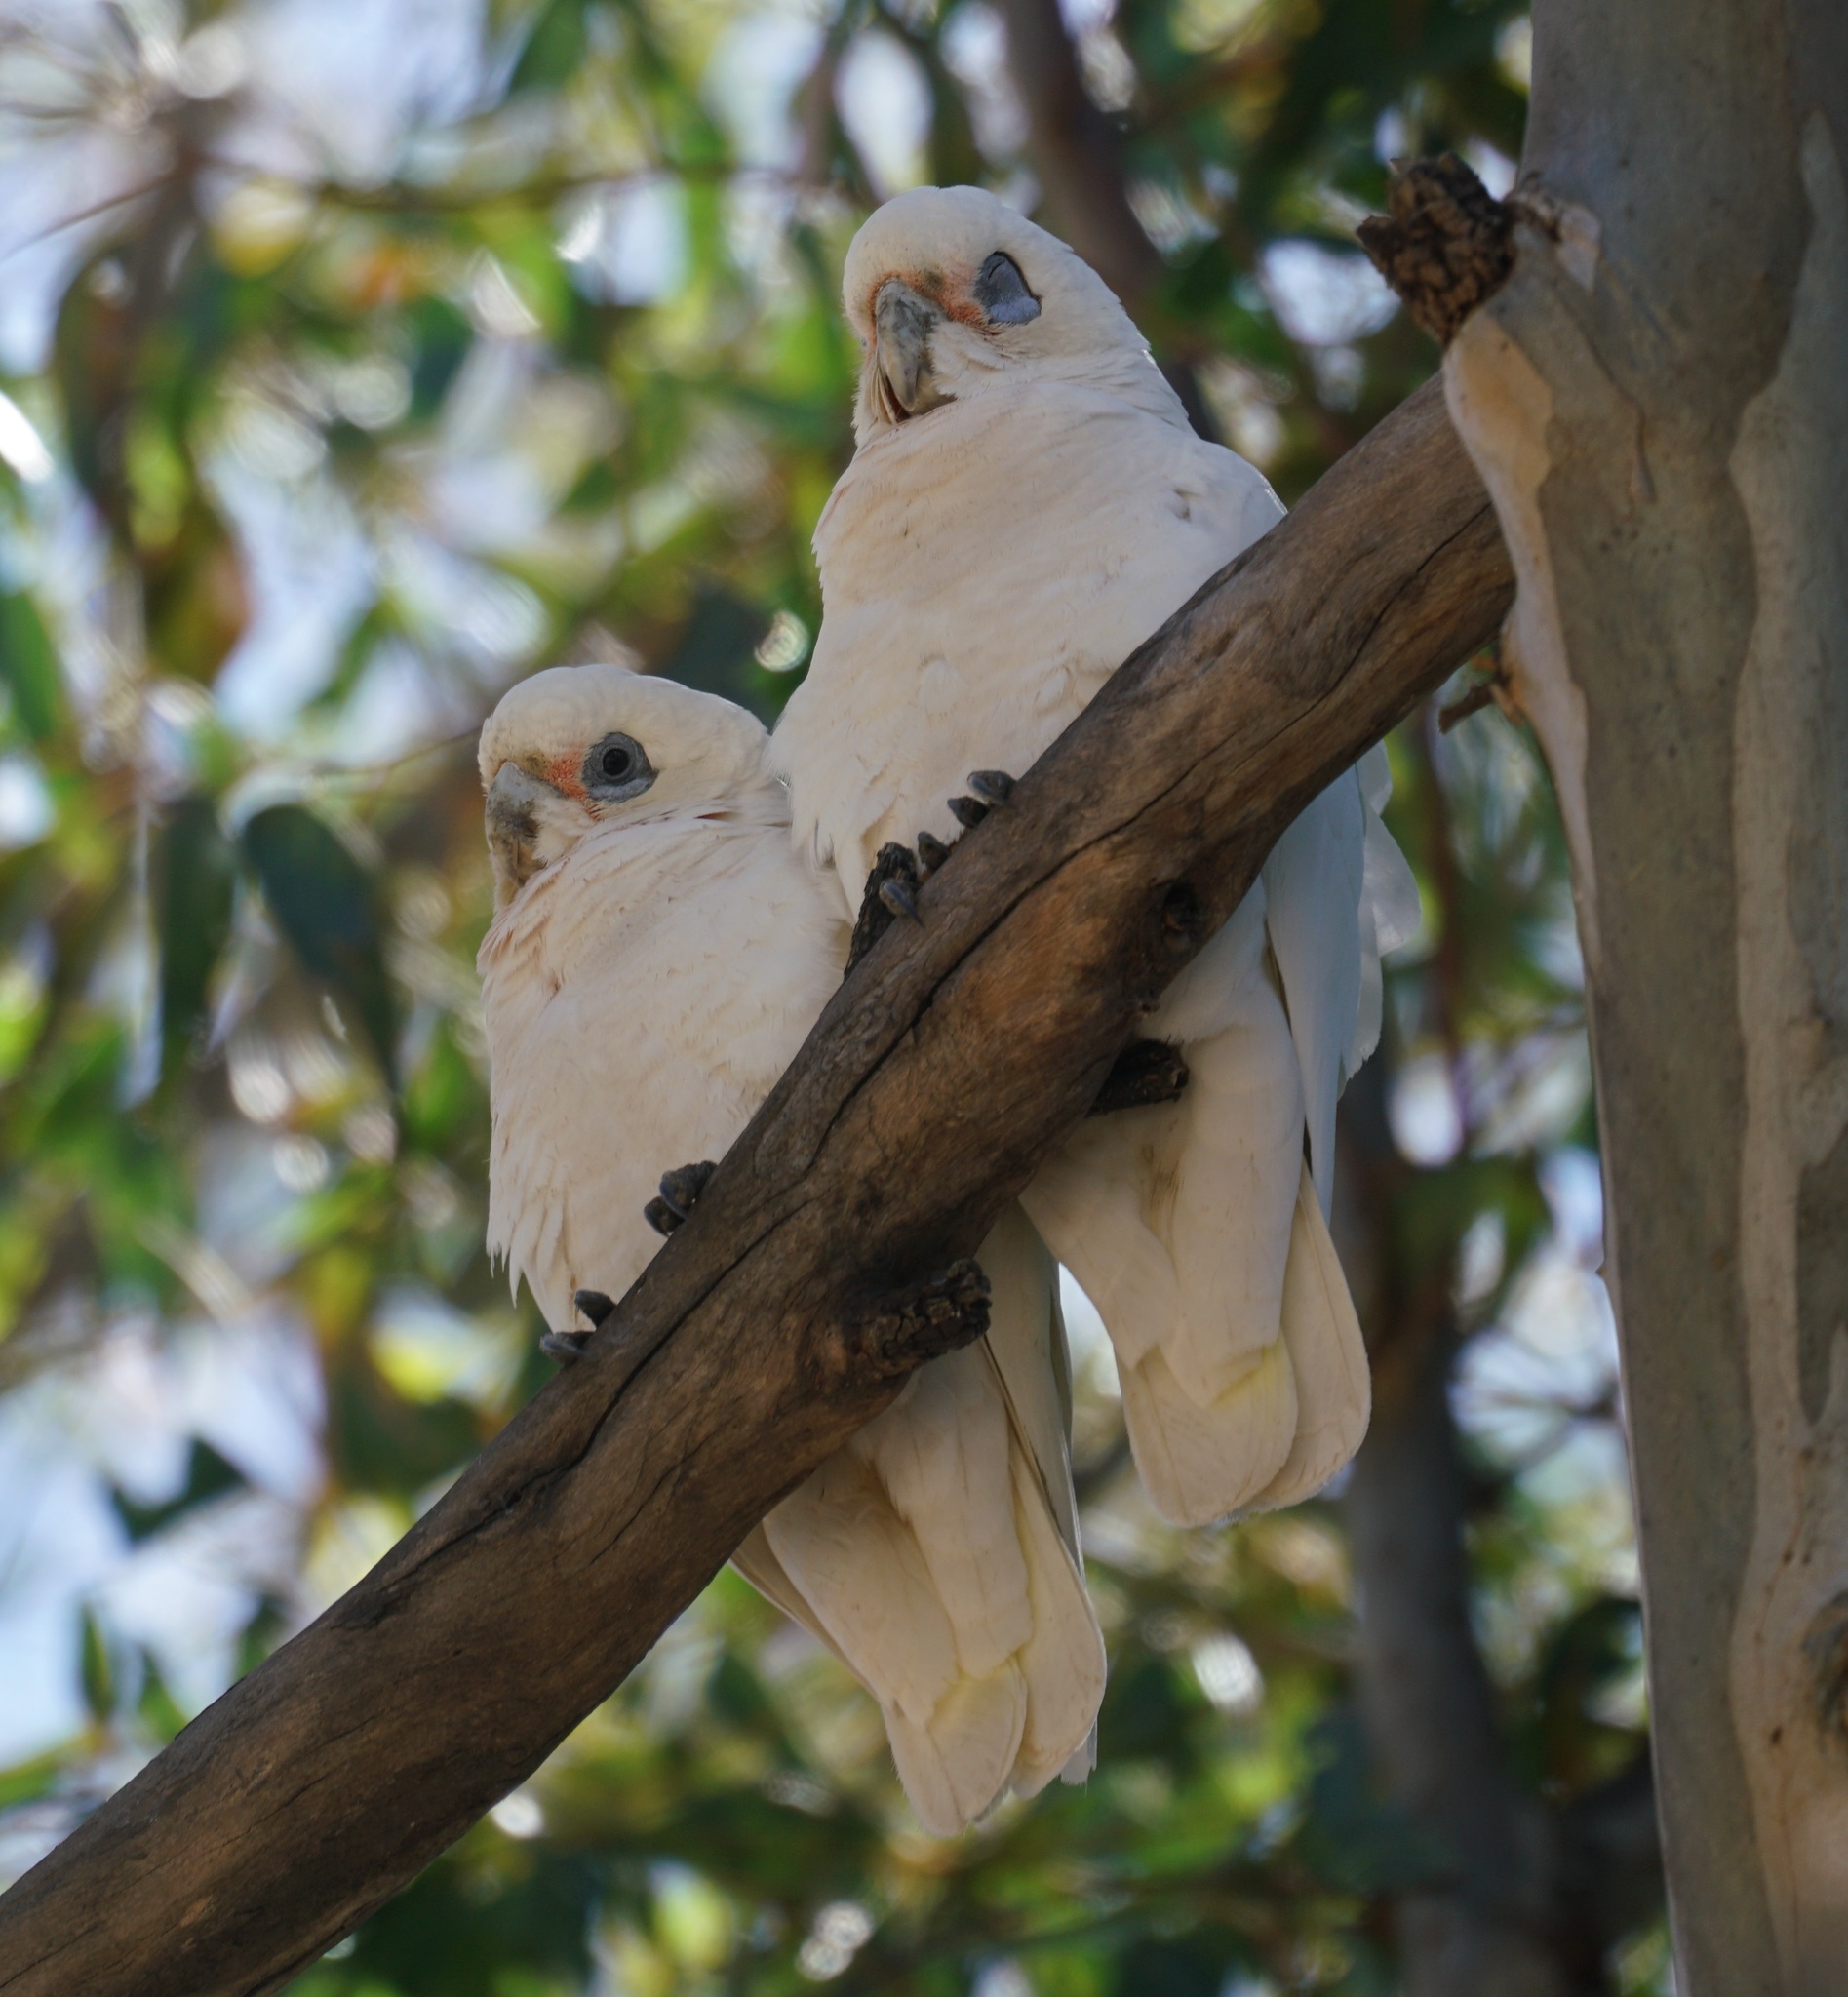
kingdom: Animalia
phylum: Chordata
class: Aves
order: Psittaciformes
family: Psittacidae
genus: Cacatua
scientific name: Cacatua sanguinea
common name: Little corella
